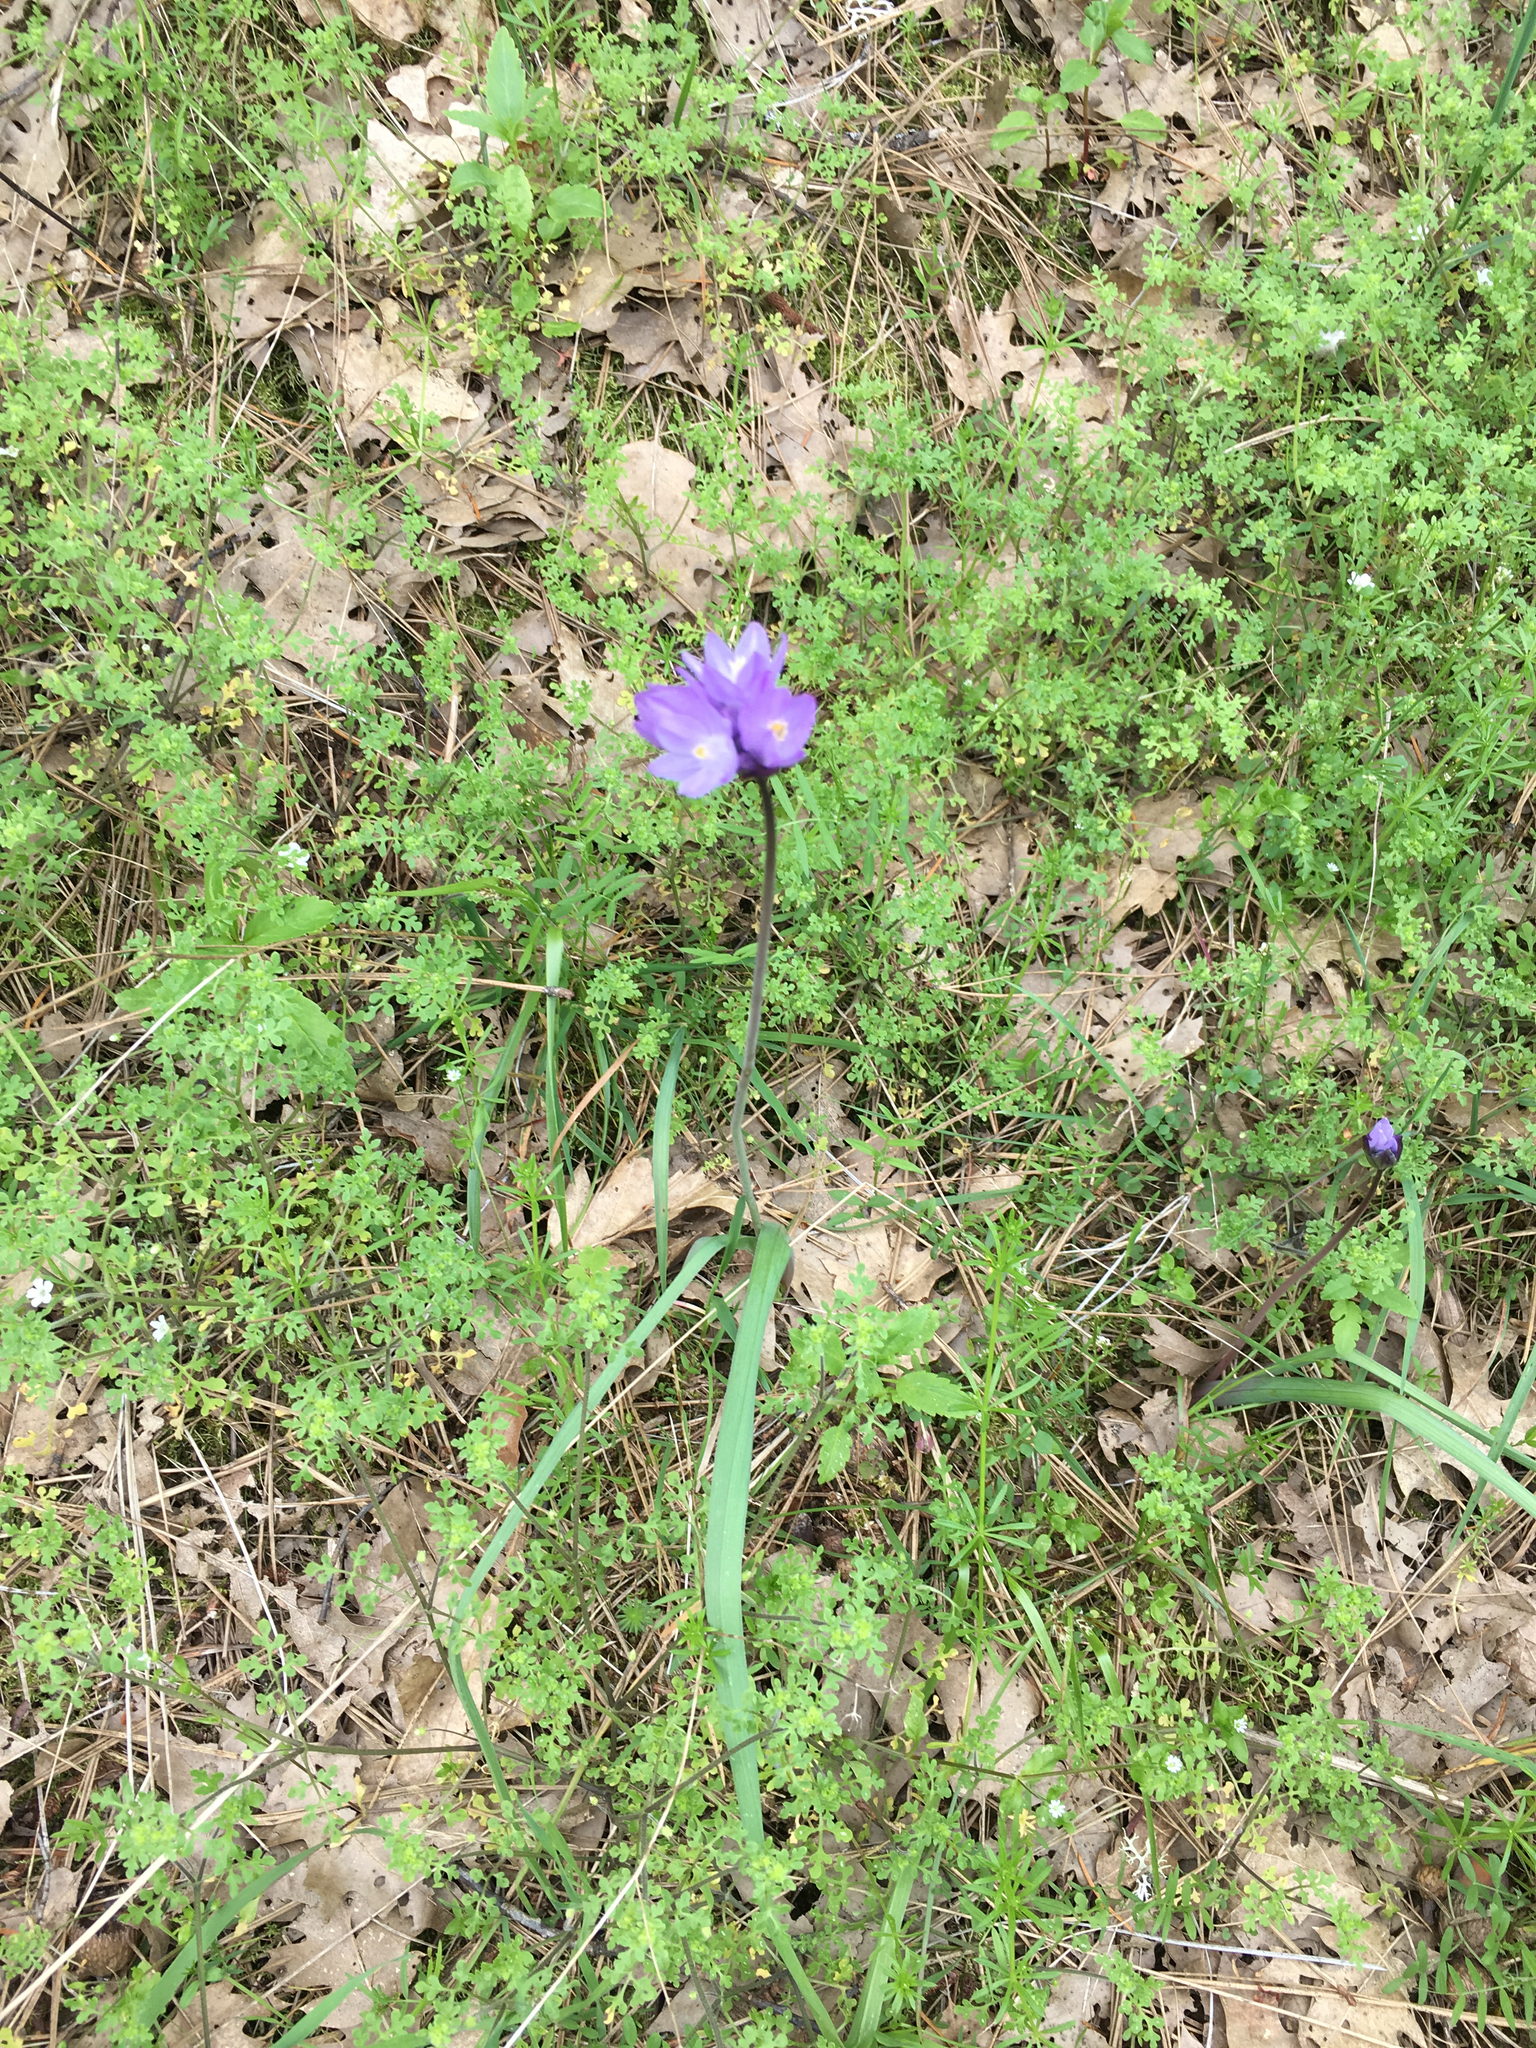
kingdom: Plantae
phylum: Tracheophyta
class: Liliopsida
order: Asparagales
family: Asparagaceae
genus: Dipterostemon
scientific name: Dipterostemon capitatus
